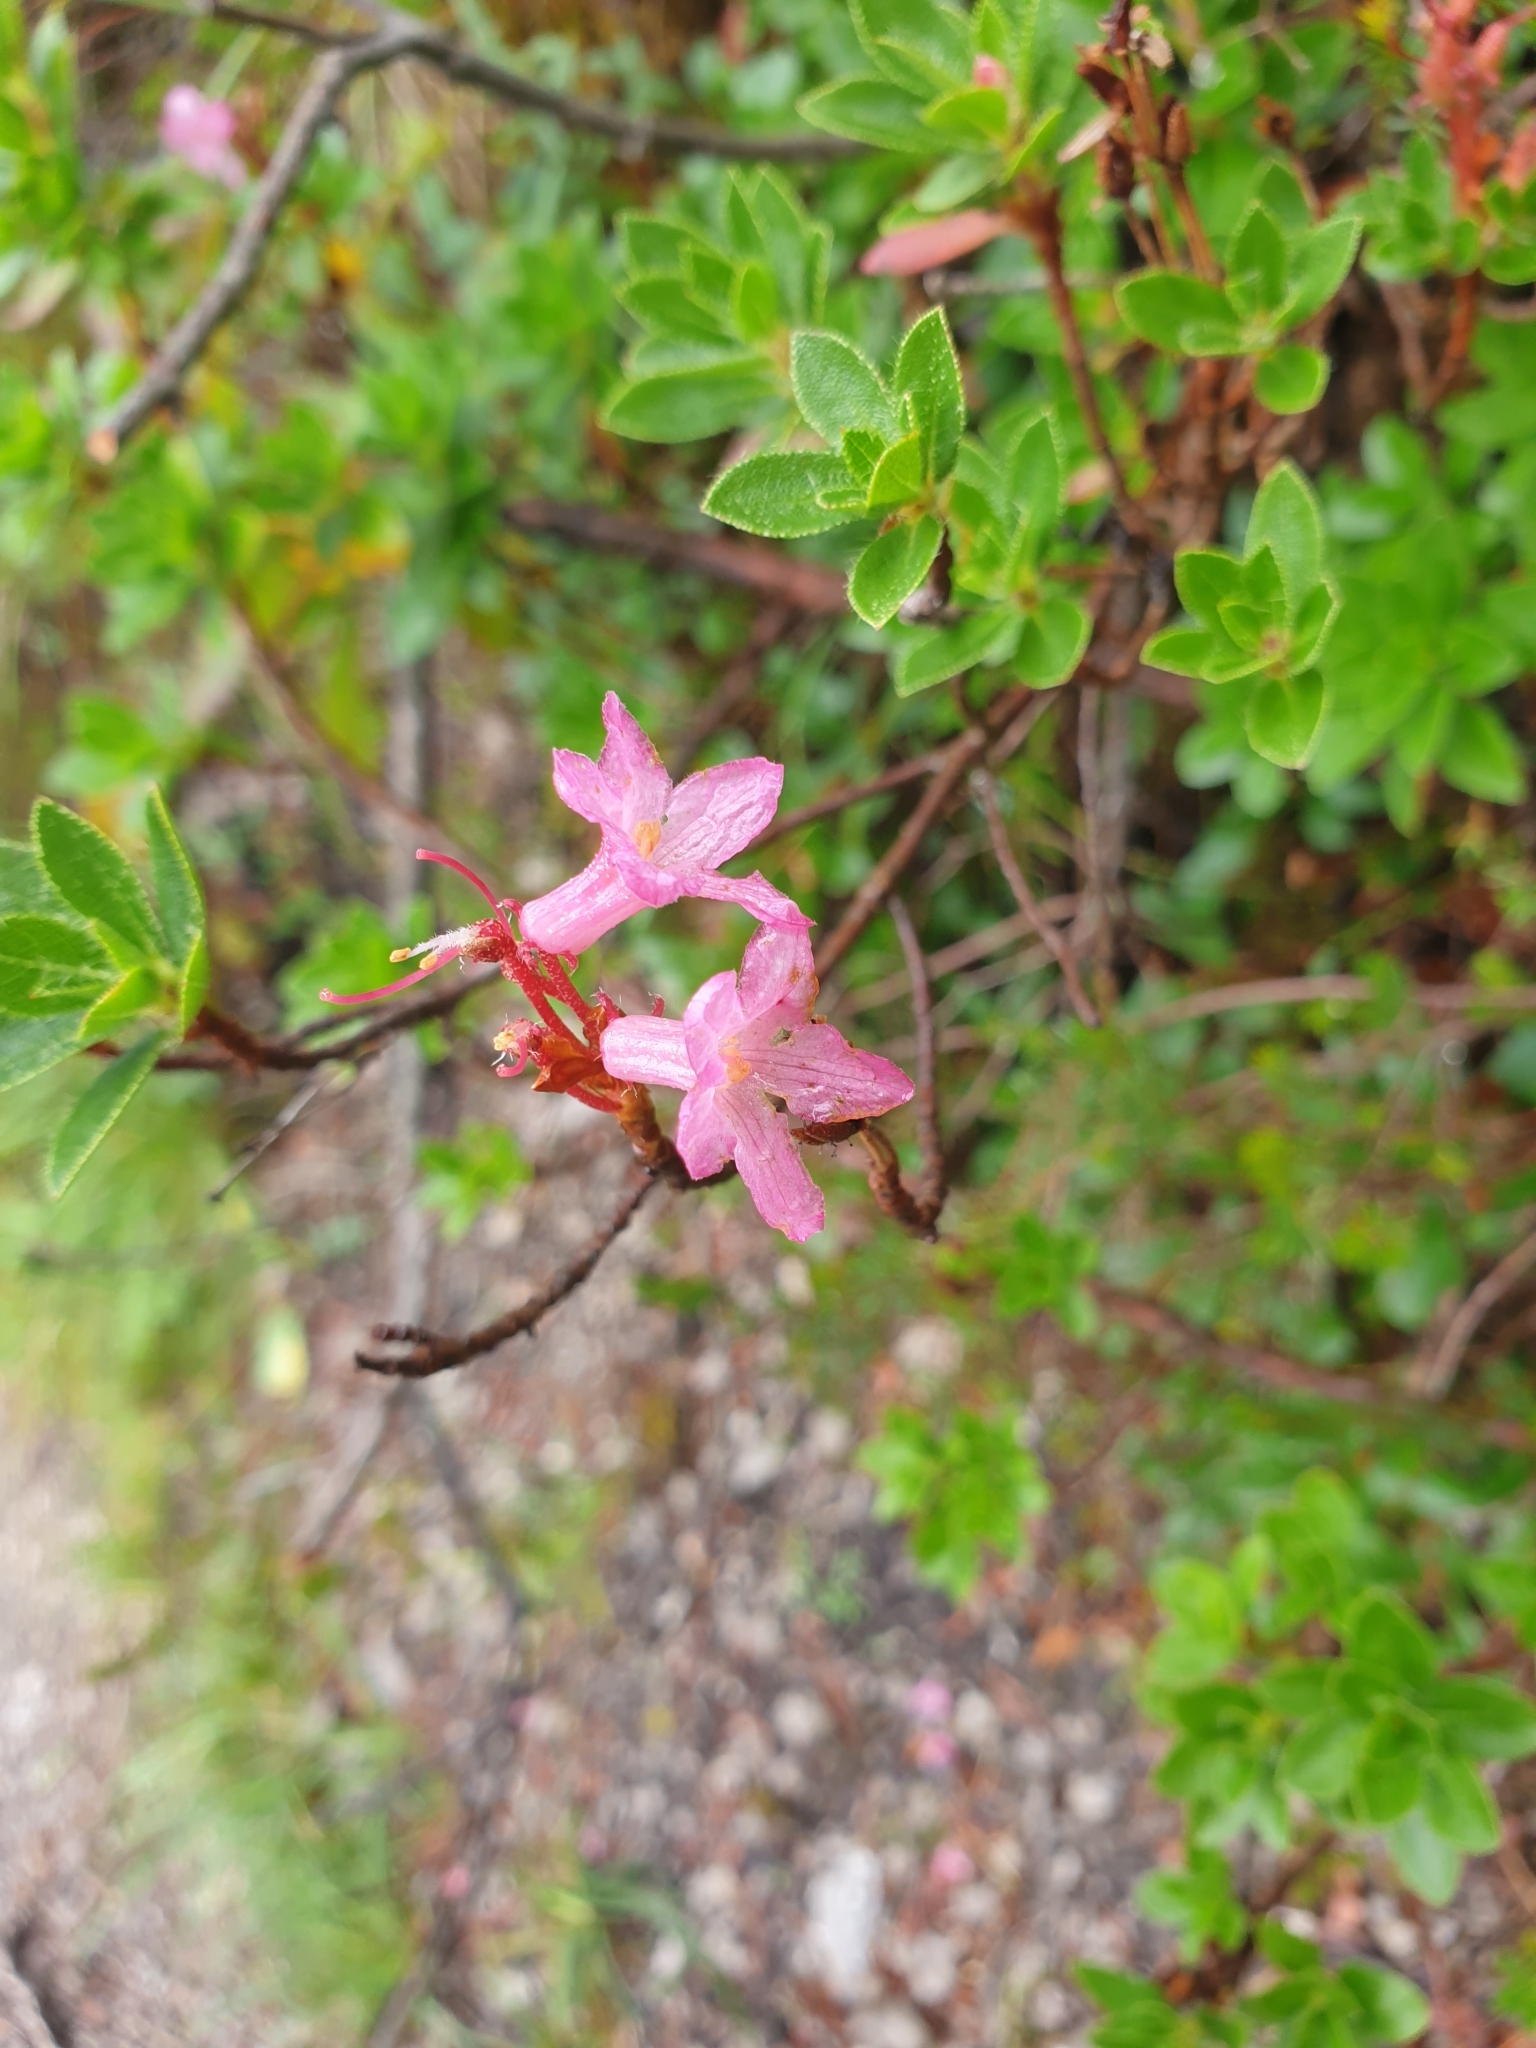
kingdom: Plantae
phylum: Tracheophyta
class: Magnoliopsida
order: Ericales
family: Ericaceae
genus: Rhododendron
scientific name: Rhododendron hirsutum
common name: Hairy alpenrose
